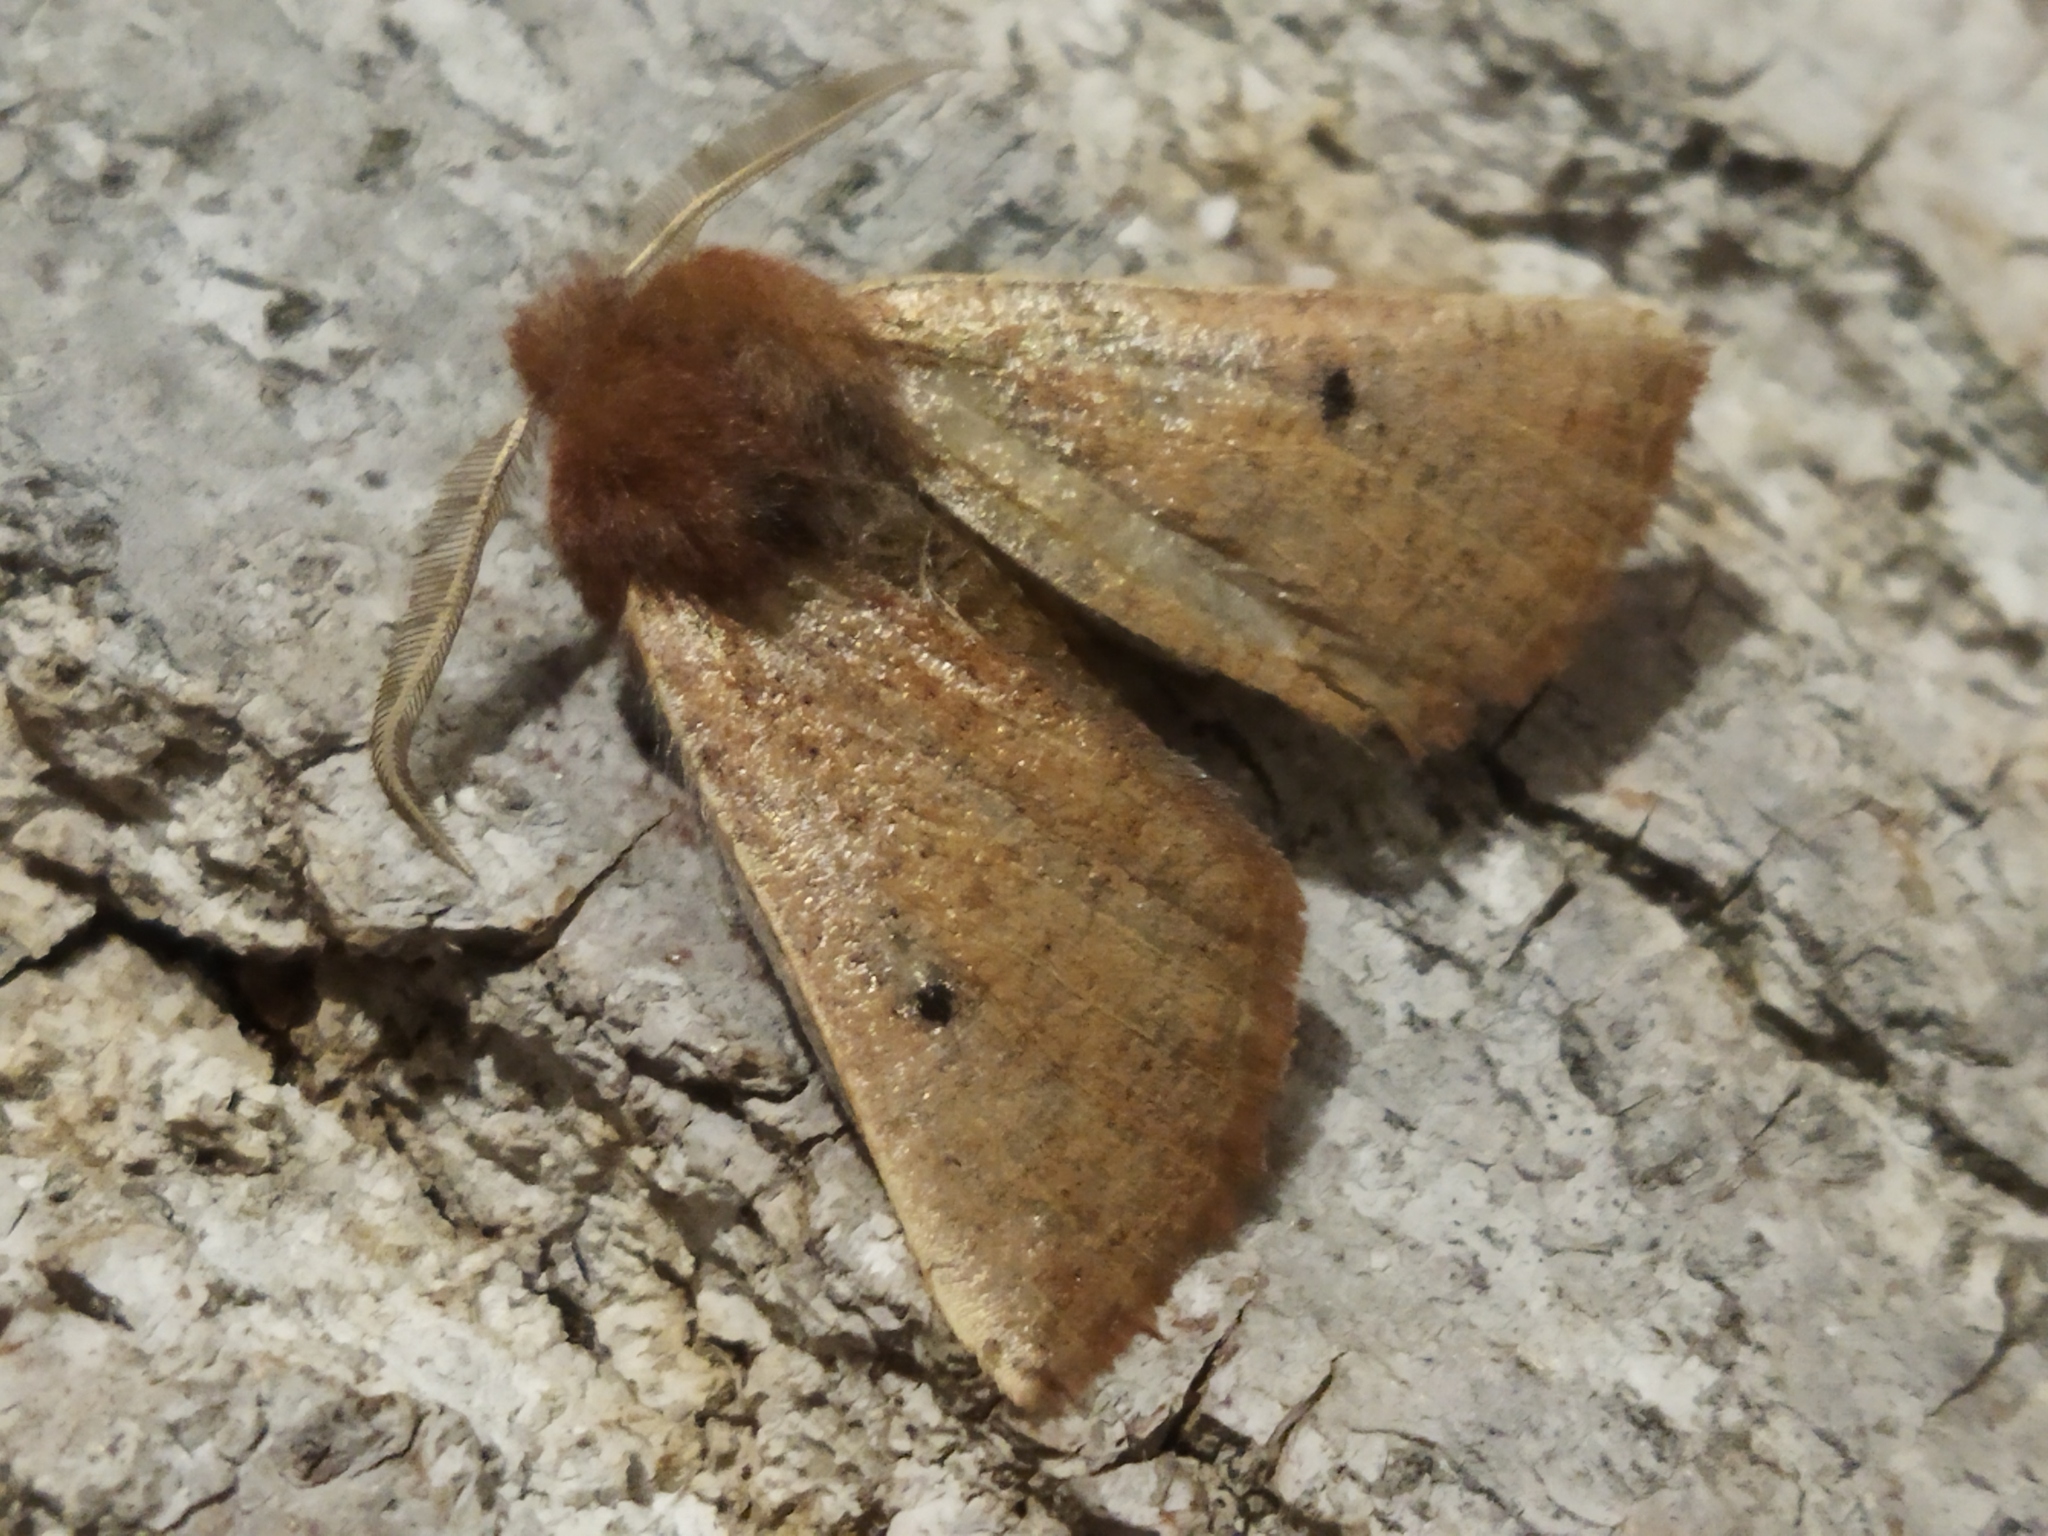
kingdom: Animalia
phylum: Arthropoda
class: Insecta
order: Lepidoptera
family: Geometridae
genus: Dasycorsa
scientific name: Dasycorsa modesta
